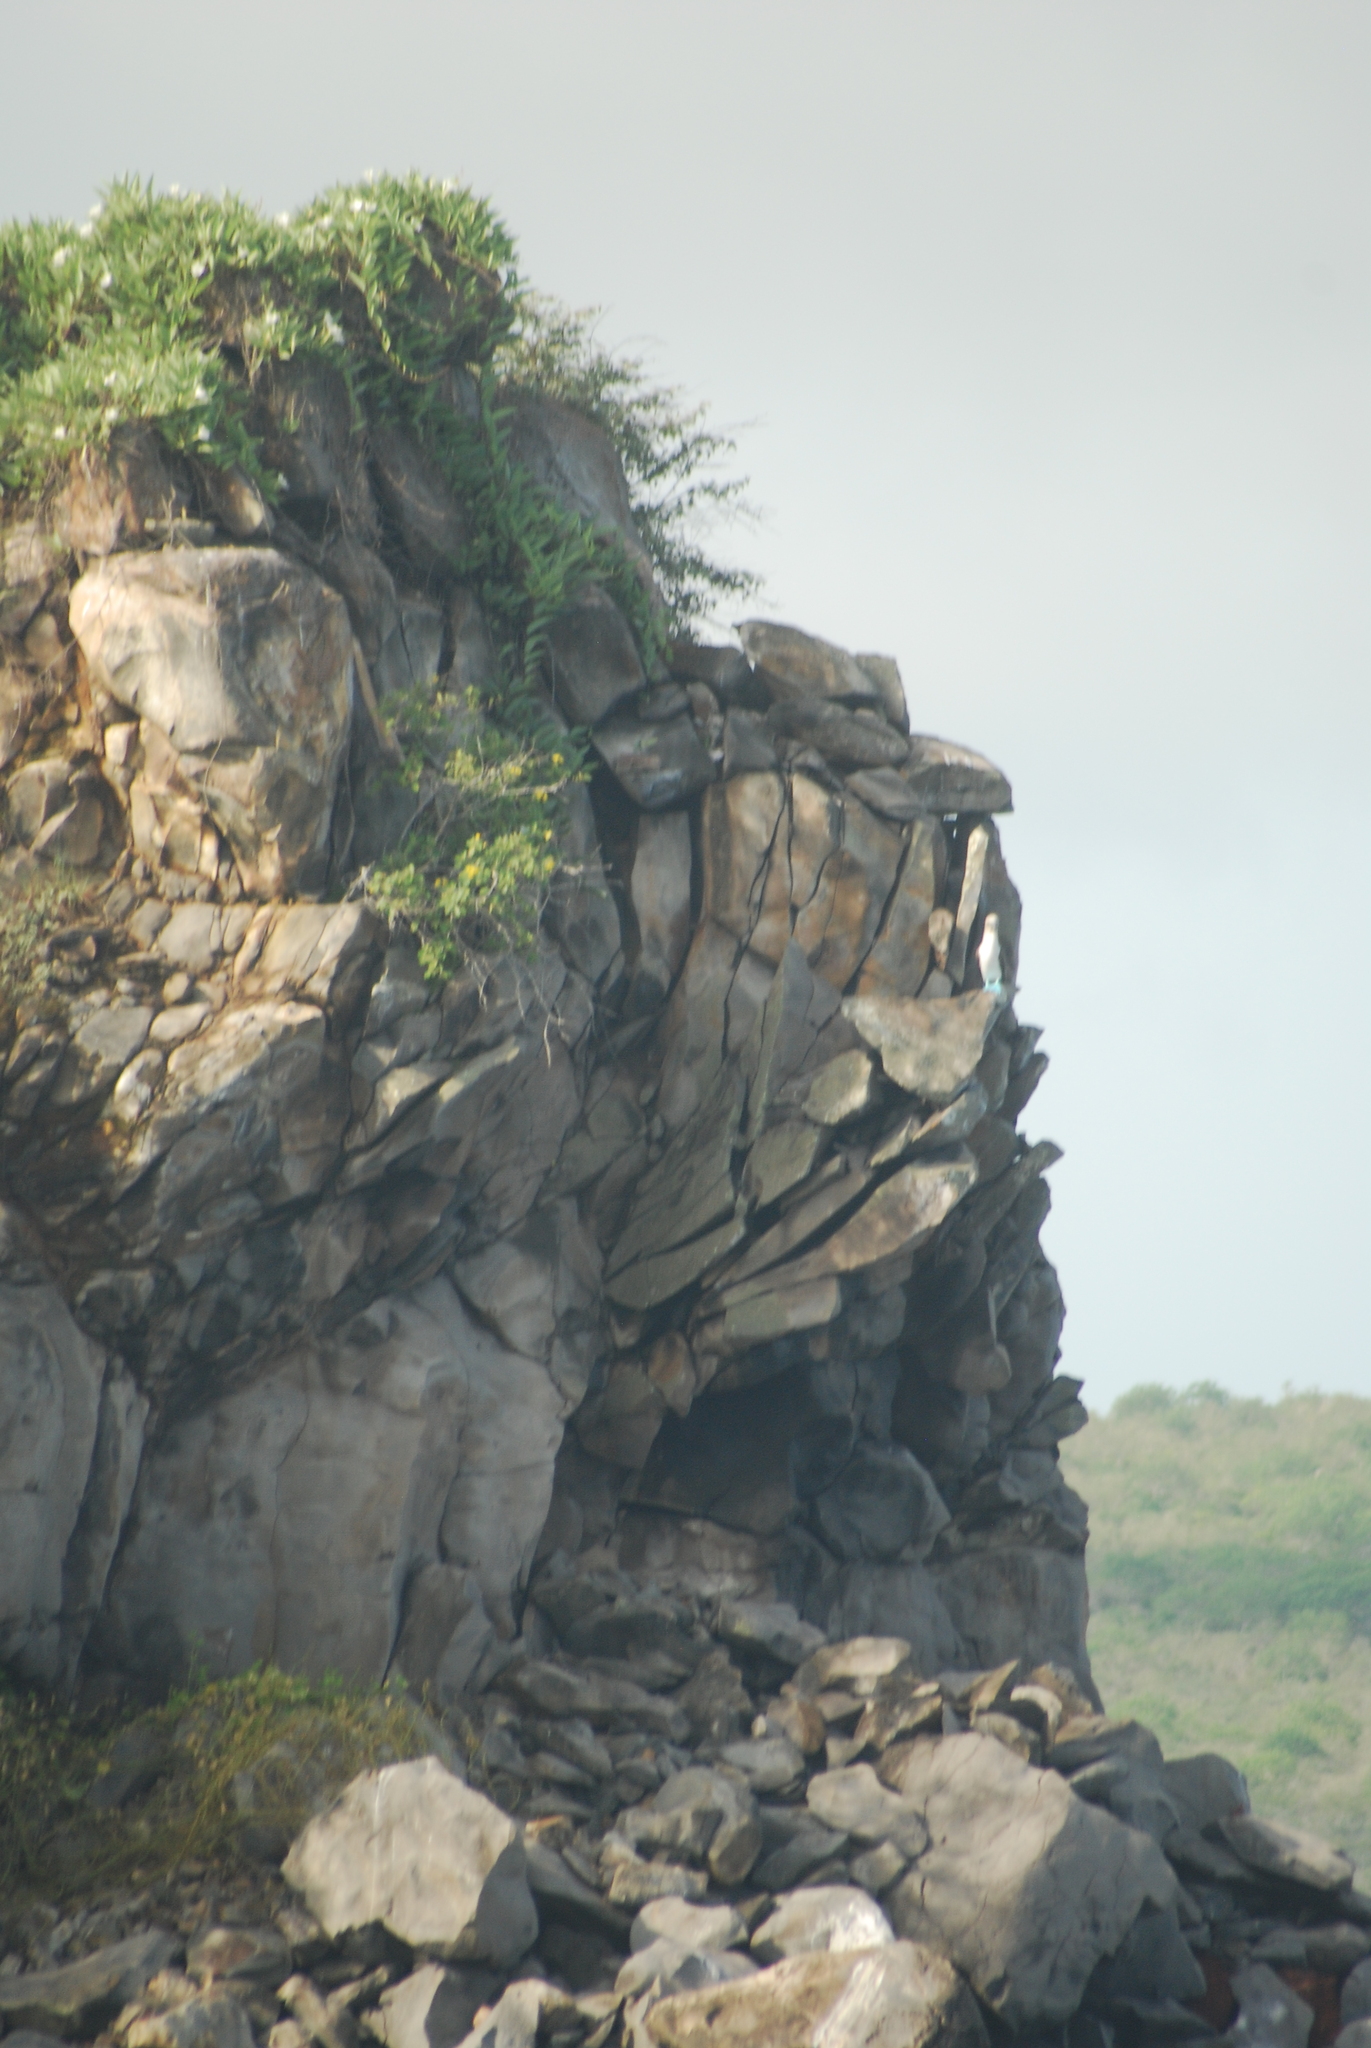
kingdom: Animalia
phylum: Chordata
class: Aves
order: Suliformes
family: Sulidae
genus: Sula
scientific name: Sula nebouxii
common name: Blue-footed booby
